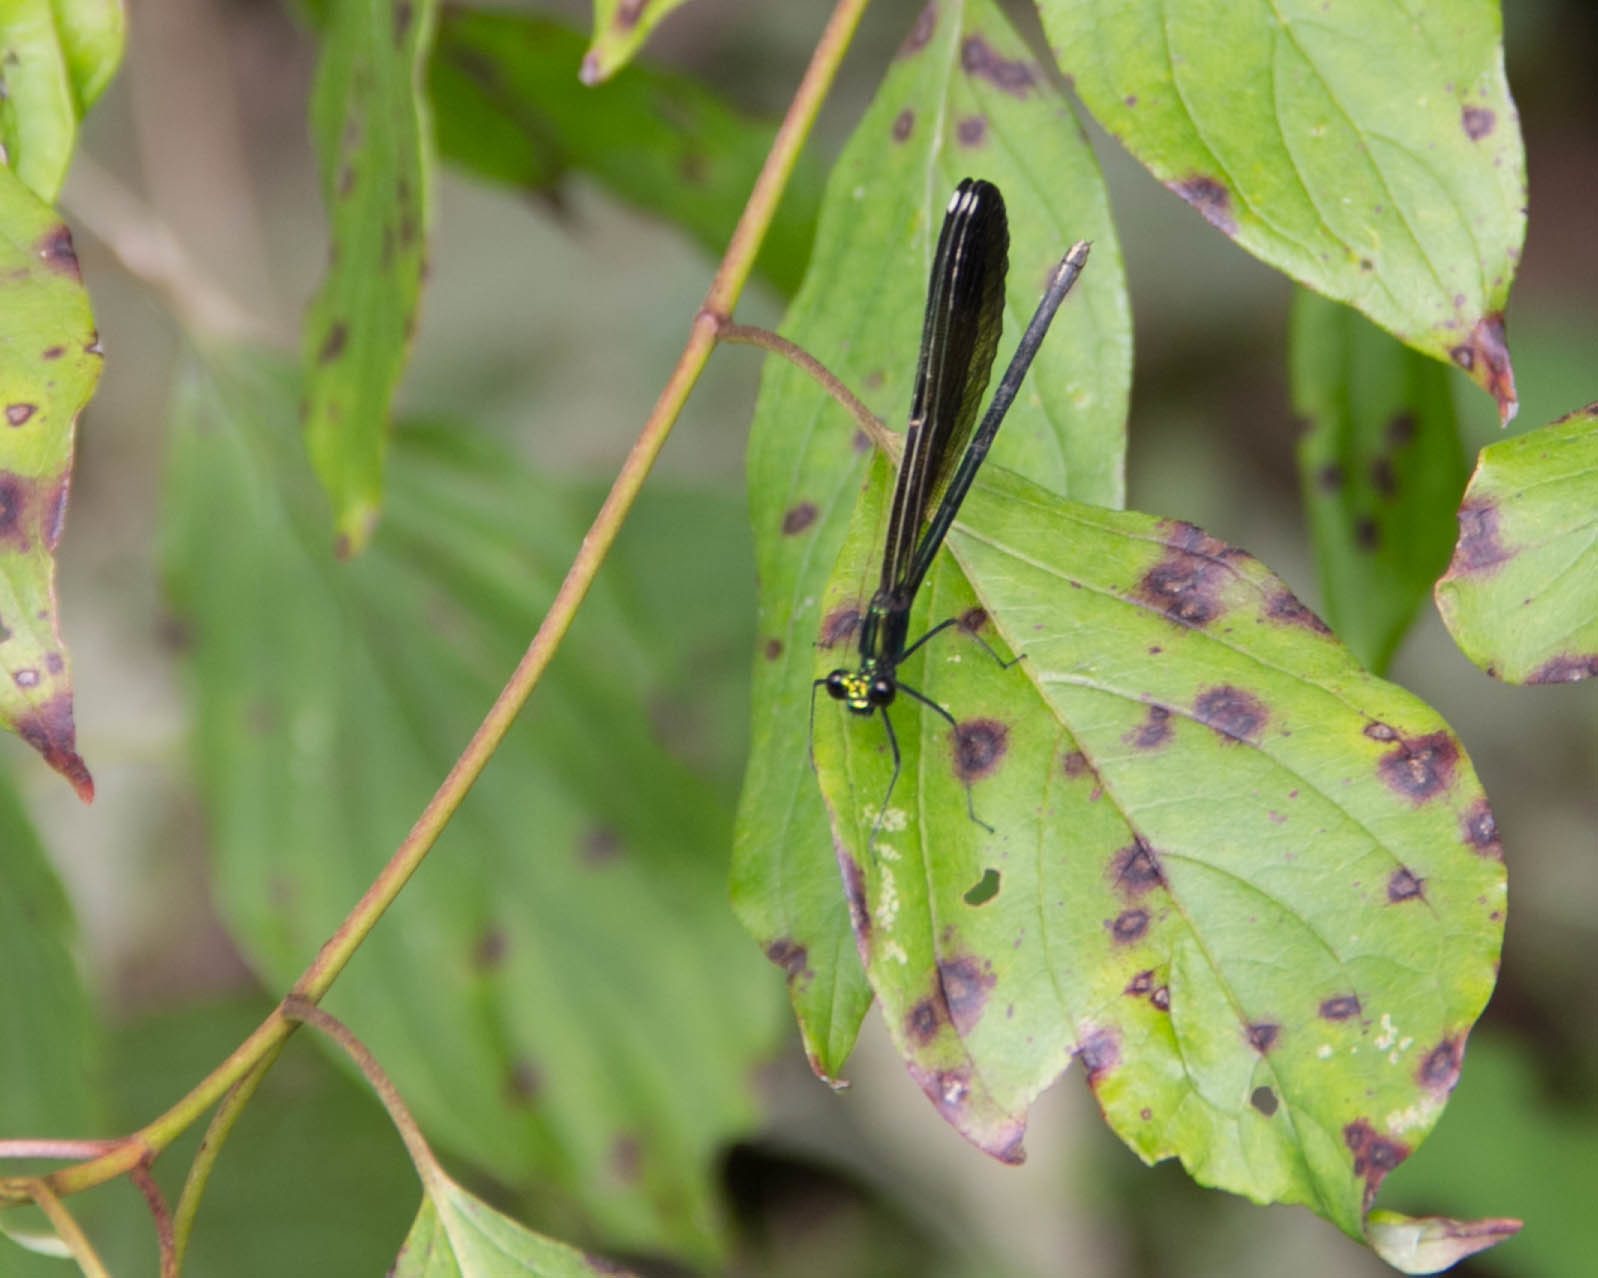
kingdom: Animalia
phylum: Arthropoda
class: Insecta
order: Odonata
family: Calopterygidae
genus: Calopteryx
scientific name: Calopteryx maculata
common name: Ebony jewelwing
